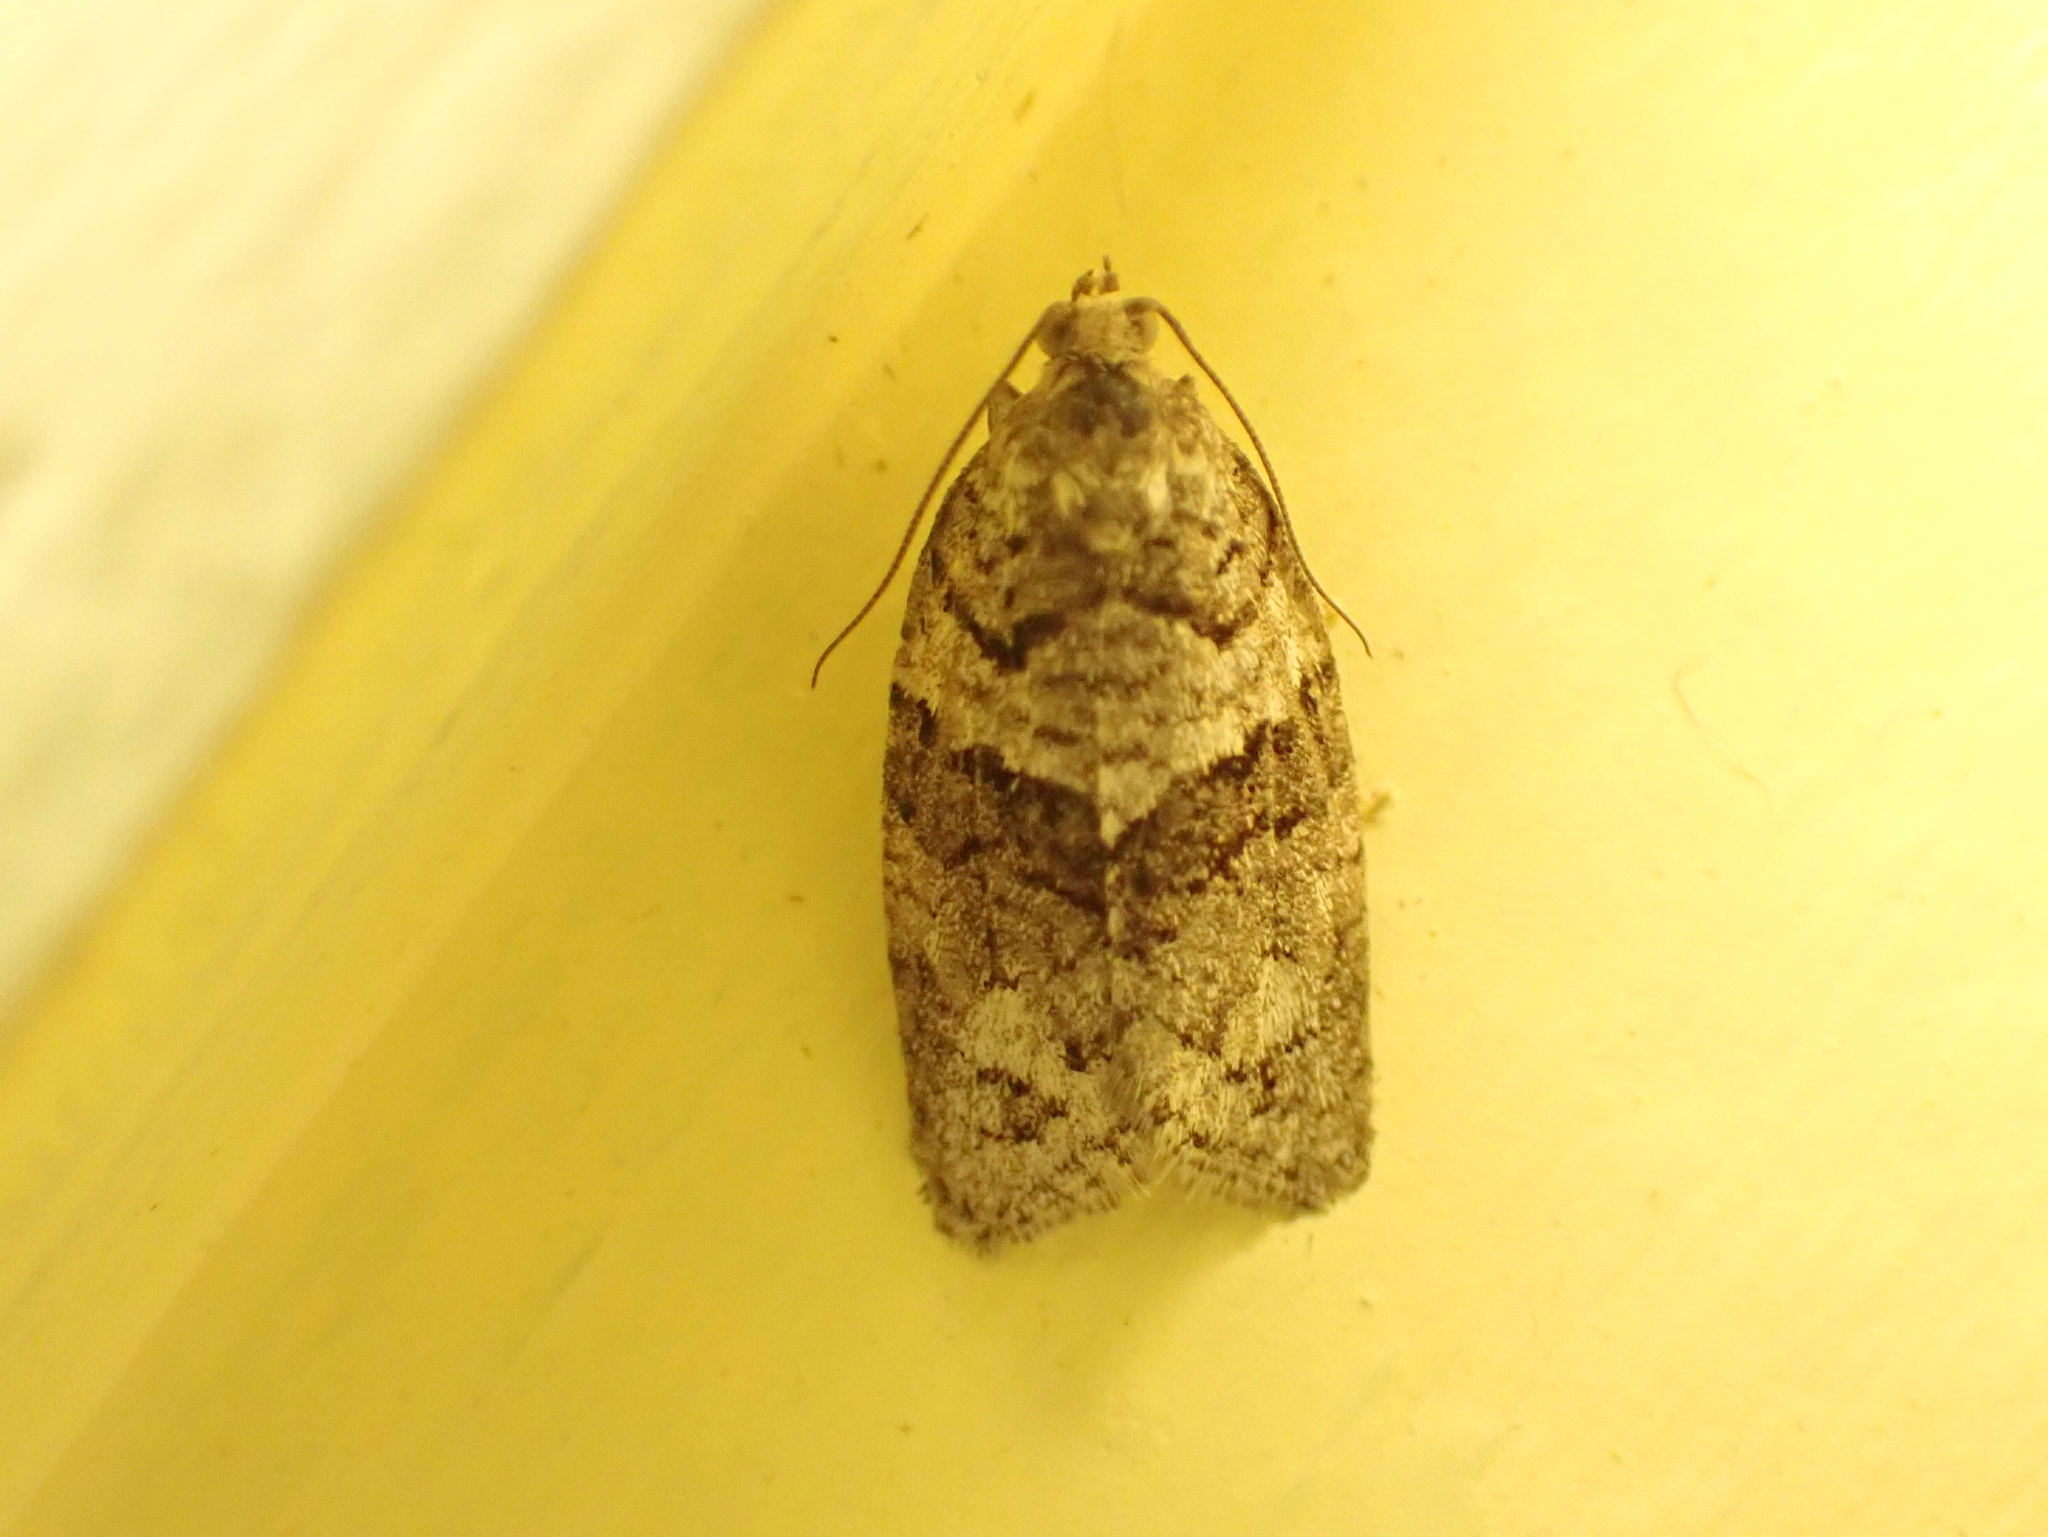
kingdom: Animalia
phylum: Arthropoda
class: Insecta
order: Lepidoptera
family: Tortricidae
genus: Syndemis
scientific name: Syndemis afflictana
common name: Gray leafroller moth
